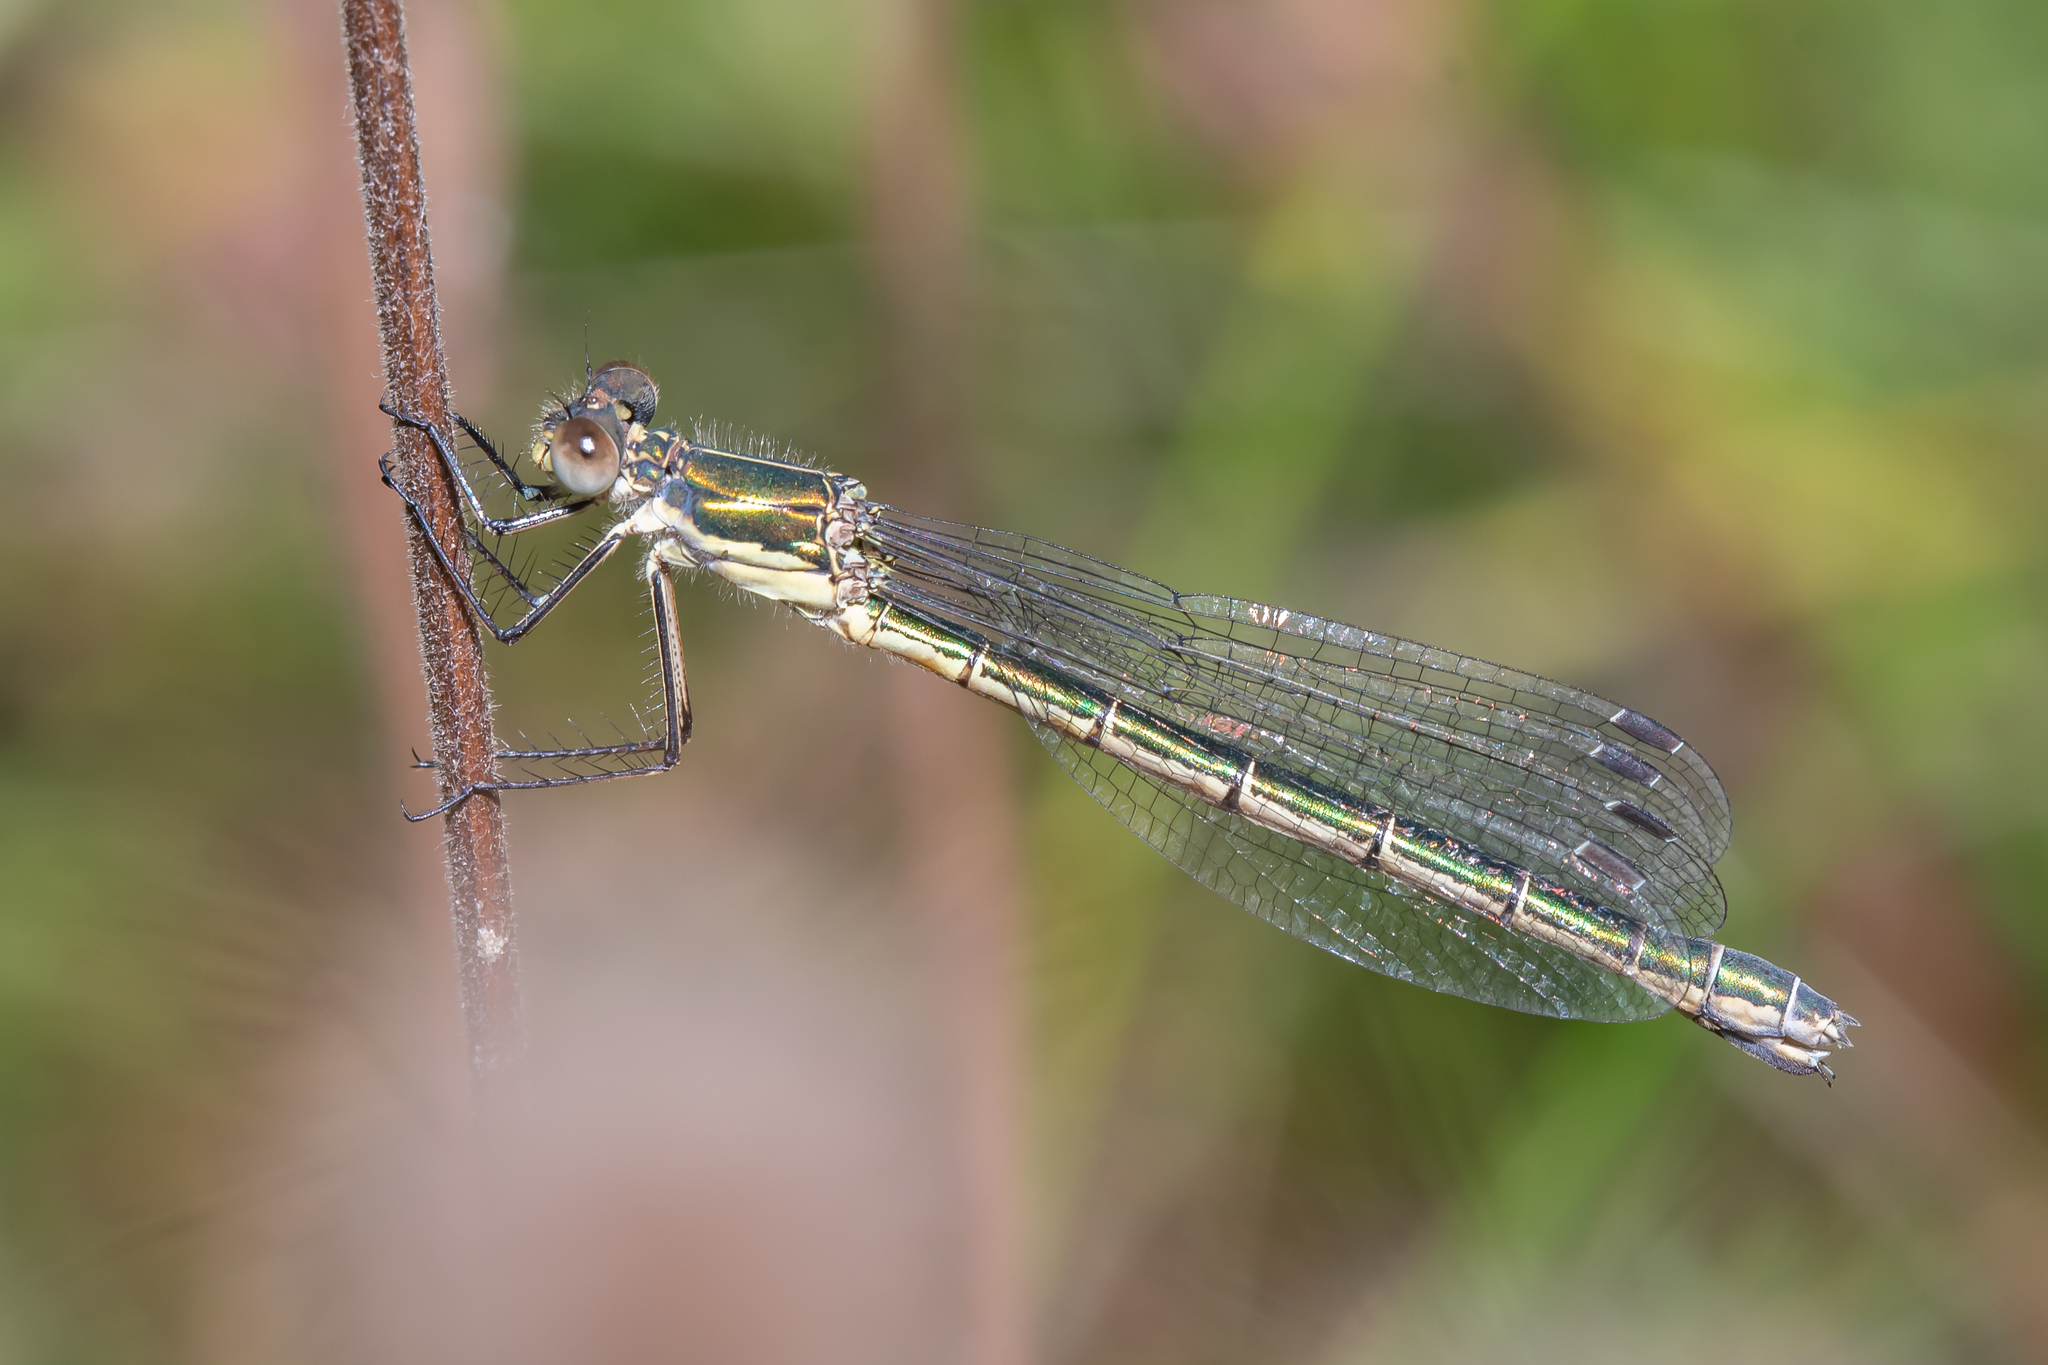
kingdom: Animalia
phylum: Arthropoda
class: Insecta
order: Odonata
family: Lestidae
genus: Lestes
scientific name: Lestes dryas
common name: Scarce emerald damselfly
